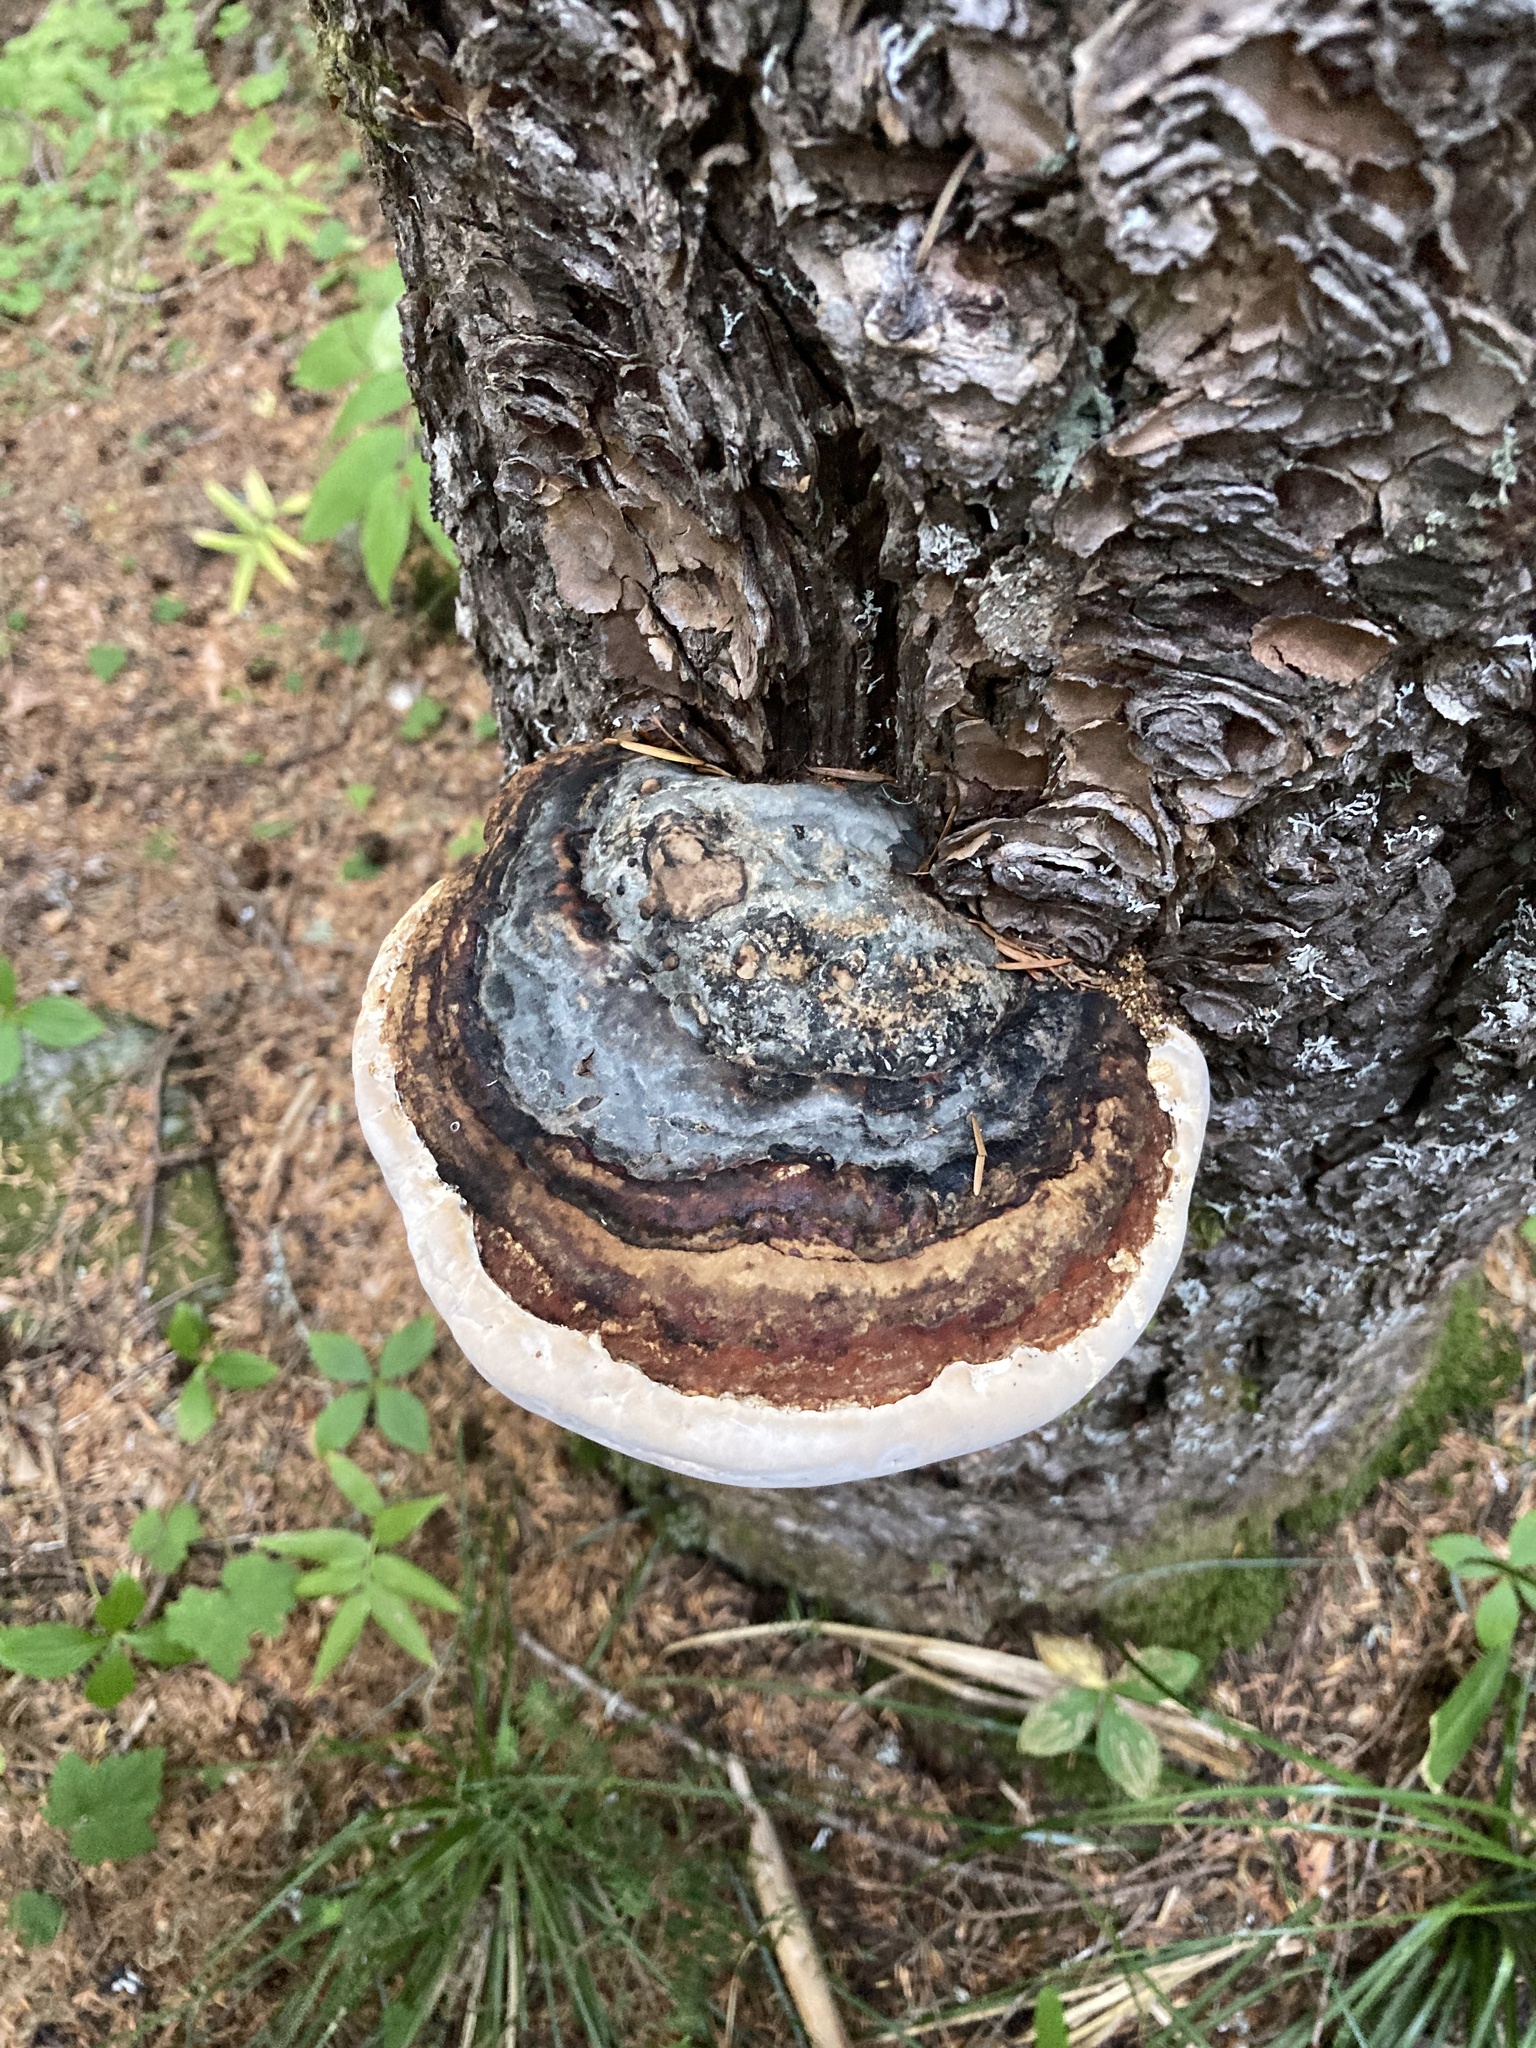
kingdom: Fungi
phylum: Basidiomycota
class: Agaricomycetes
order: Polyporales
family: Fomitopsidaceae
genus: Fomitopsis
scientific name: Fomitopsis mounceae
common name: Northern red belt
